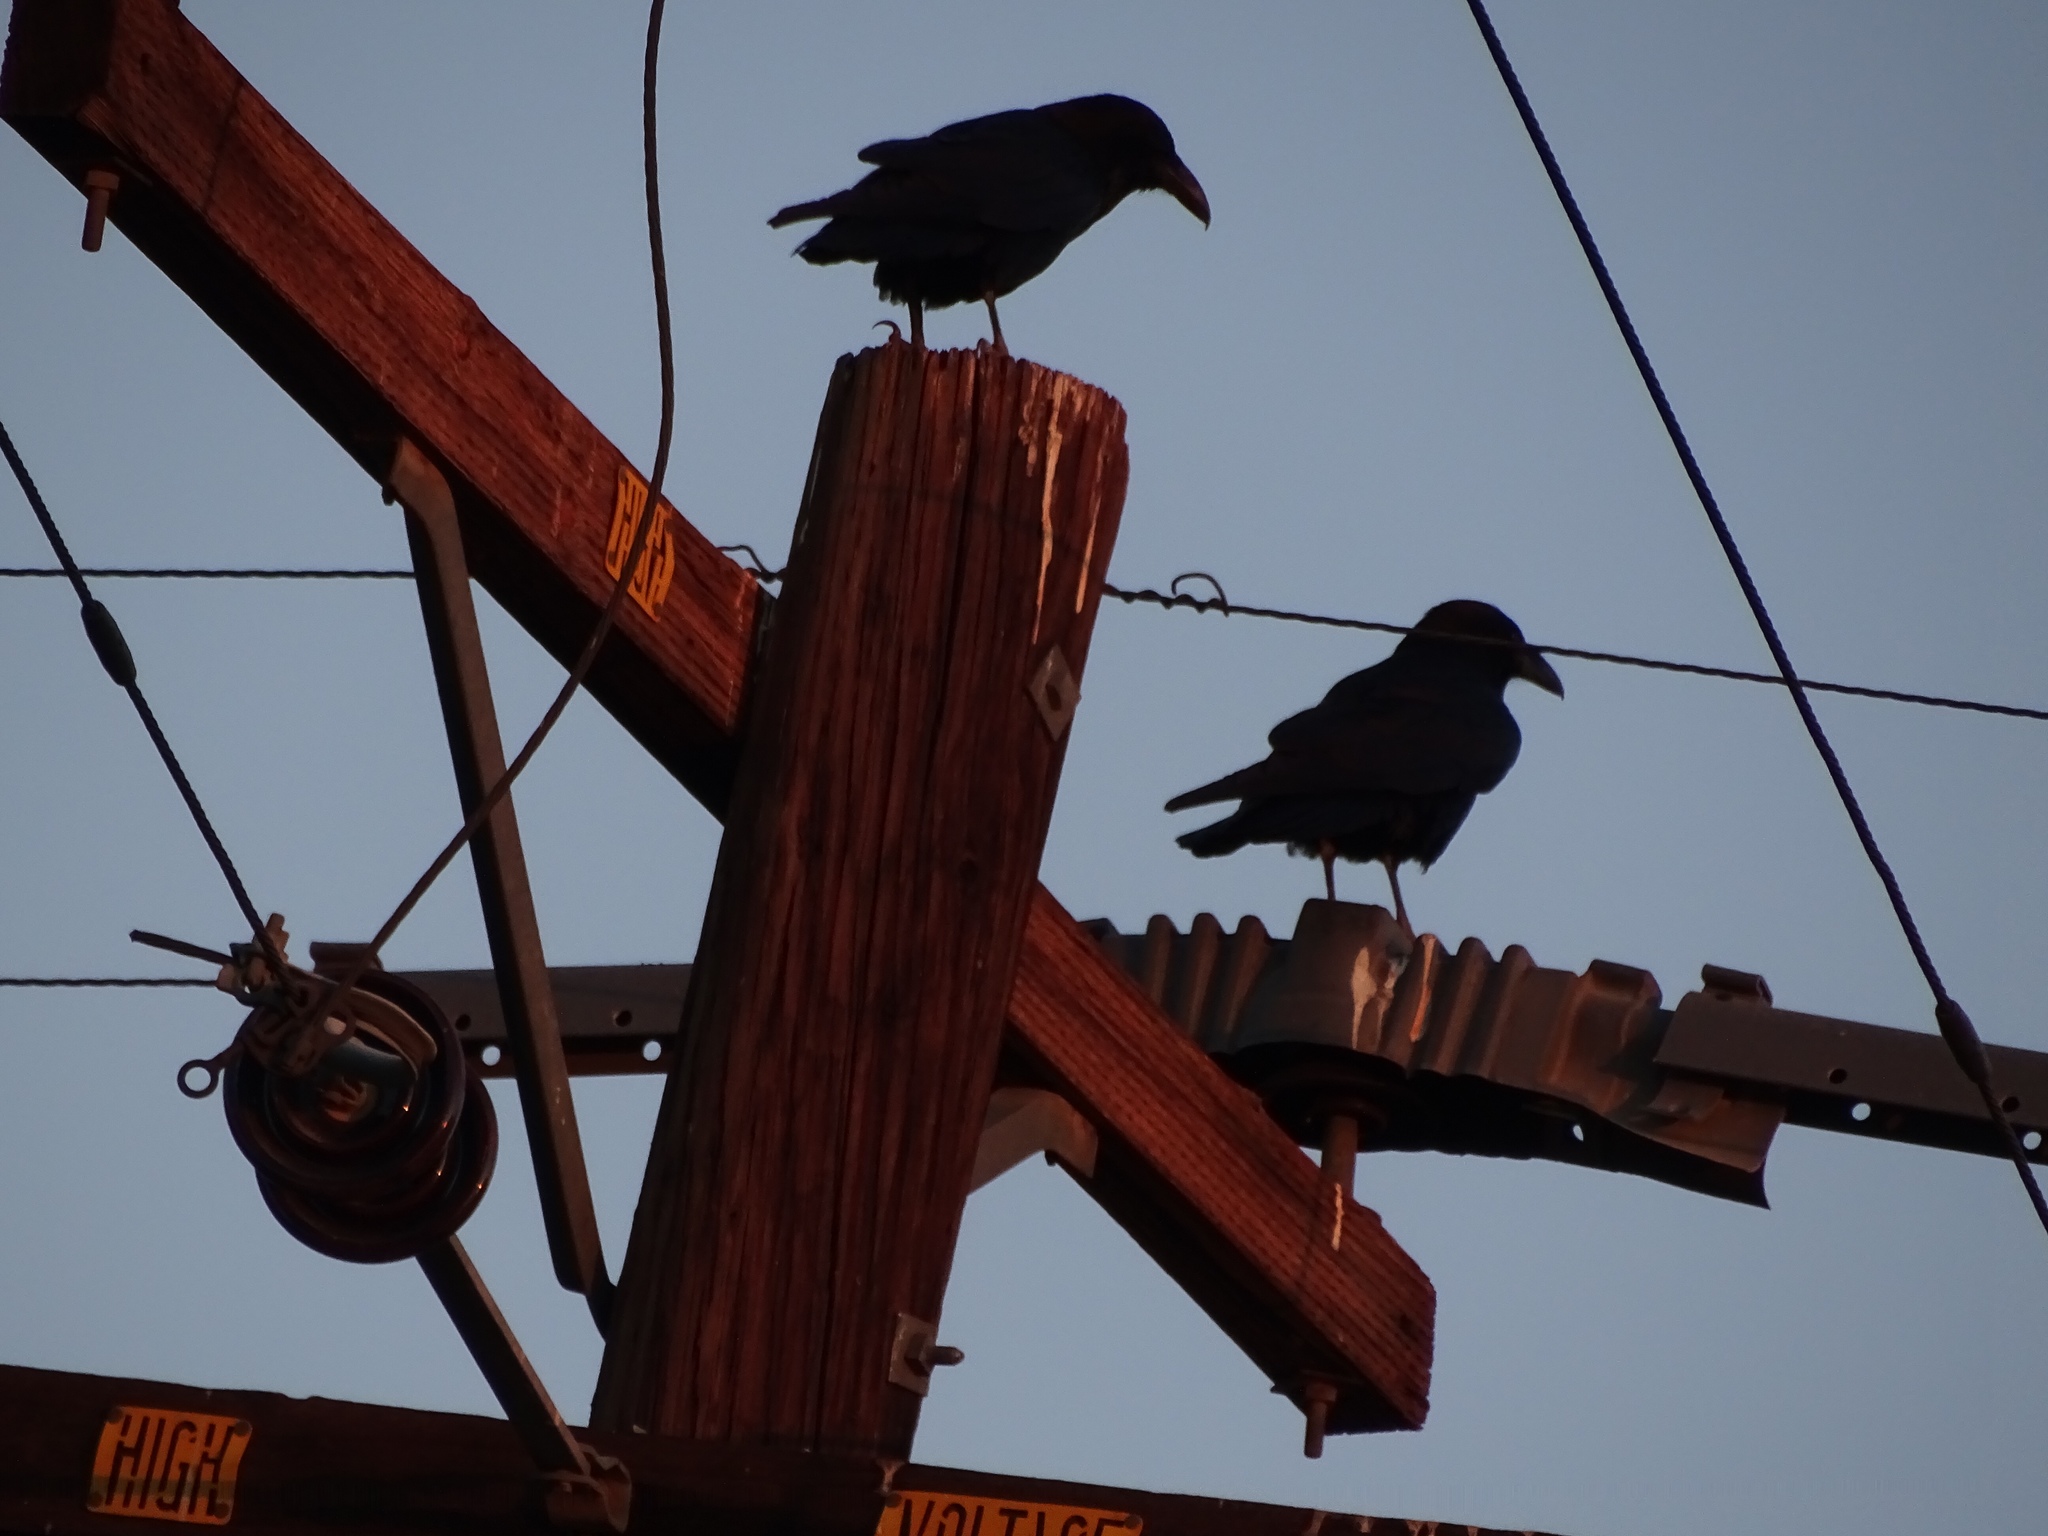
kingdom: Animalia
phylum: Chordata
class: Aves
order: Passeriformes
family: Corvidae
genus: Corvus
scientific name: Corvus corax
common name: Common raven
